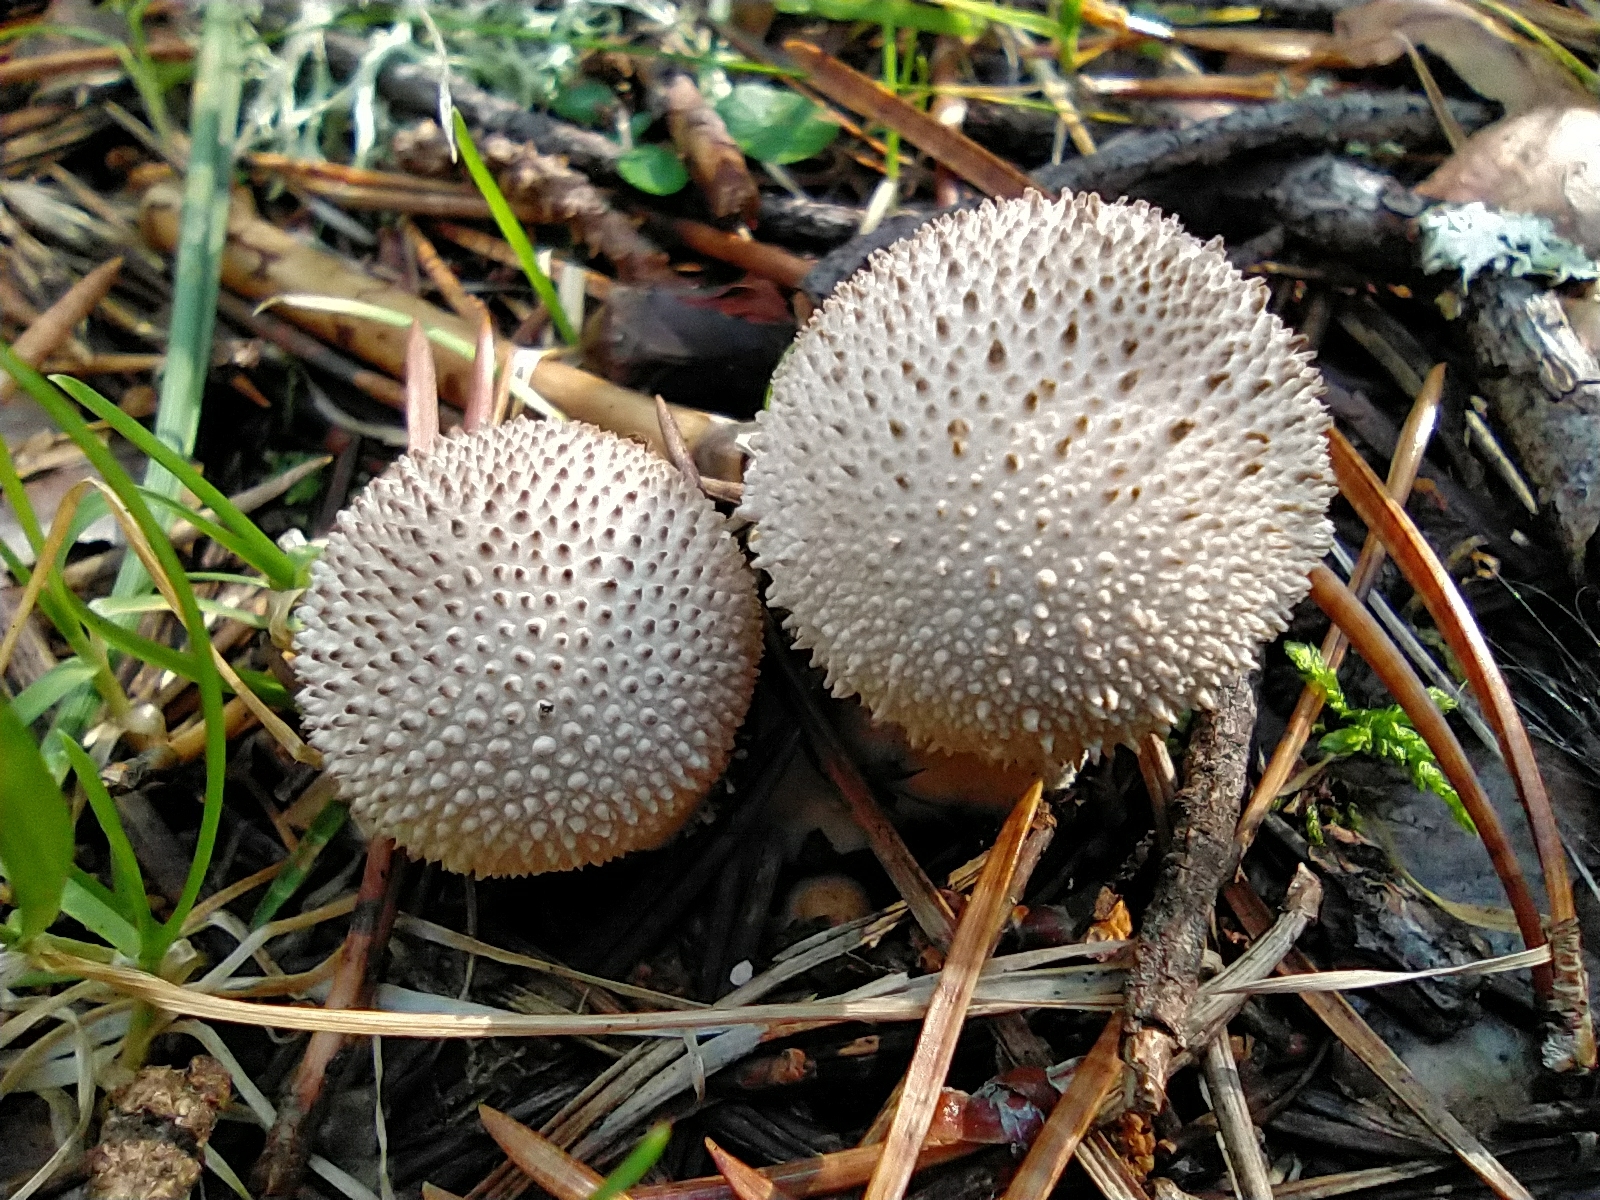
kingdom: Fungi
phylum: Basidiomycota
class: Agaricomycetes
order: Agaricales
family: Lycoperdaceae
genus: Lycoperdon
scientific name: Lycoperdon perlatum
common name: Common puffball
